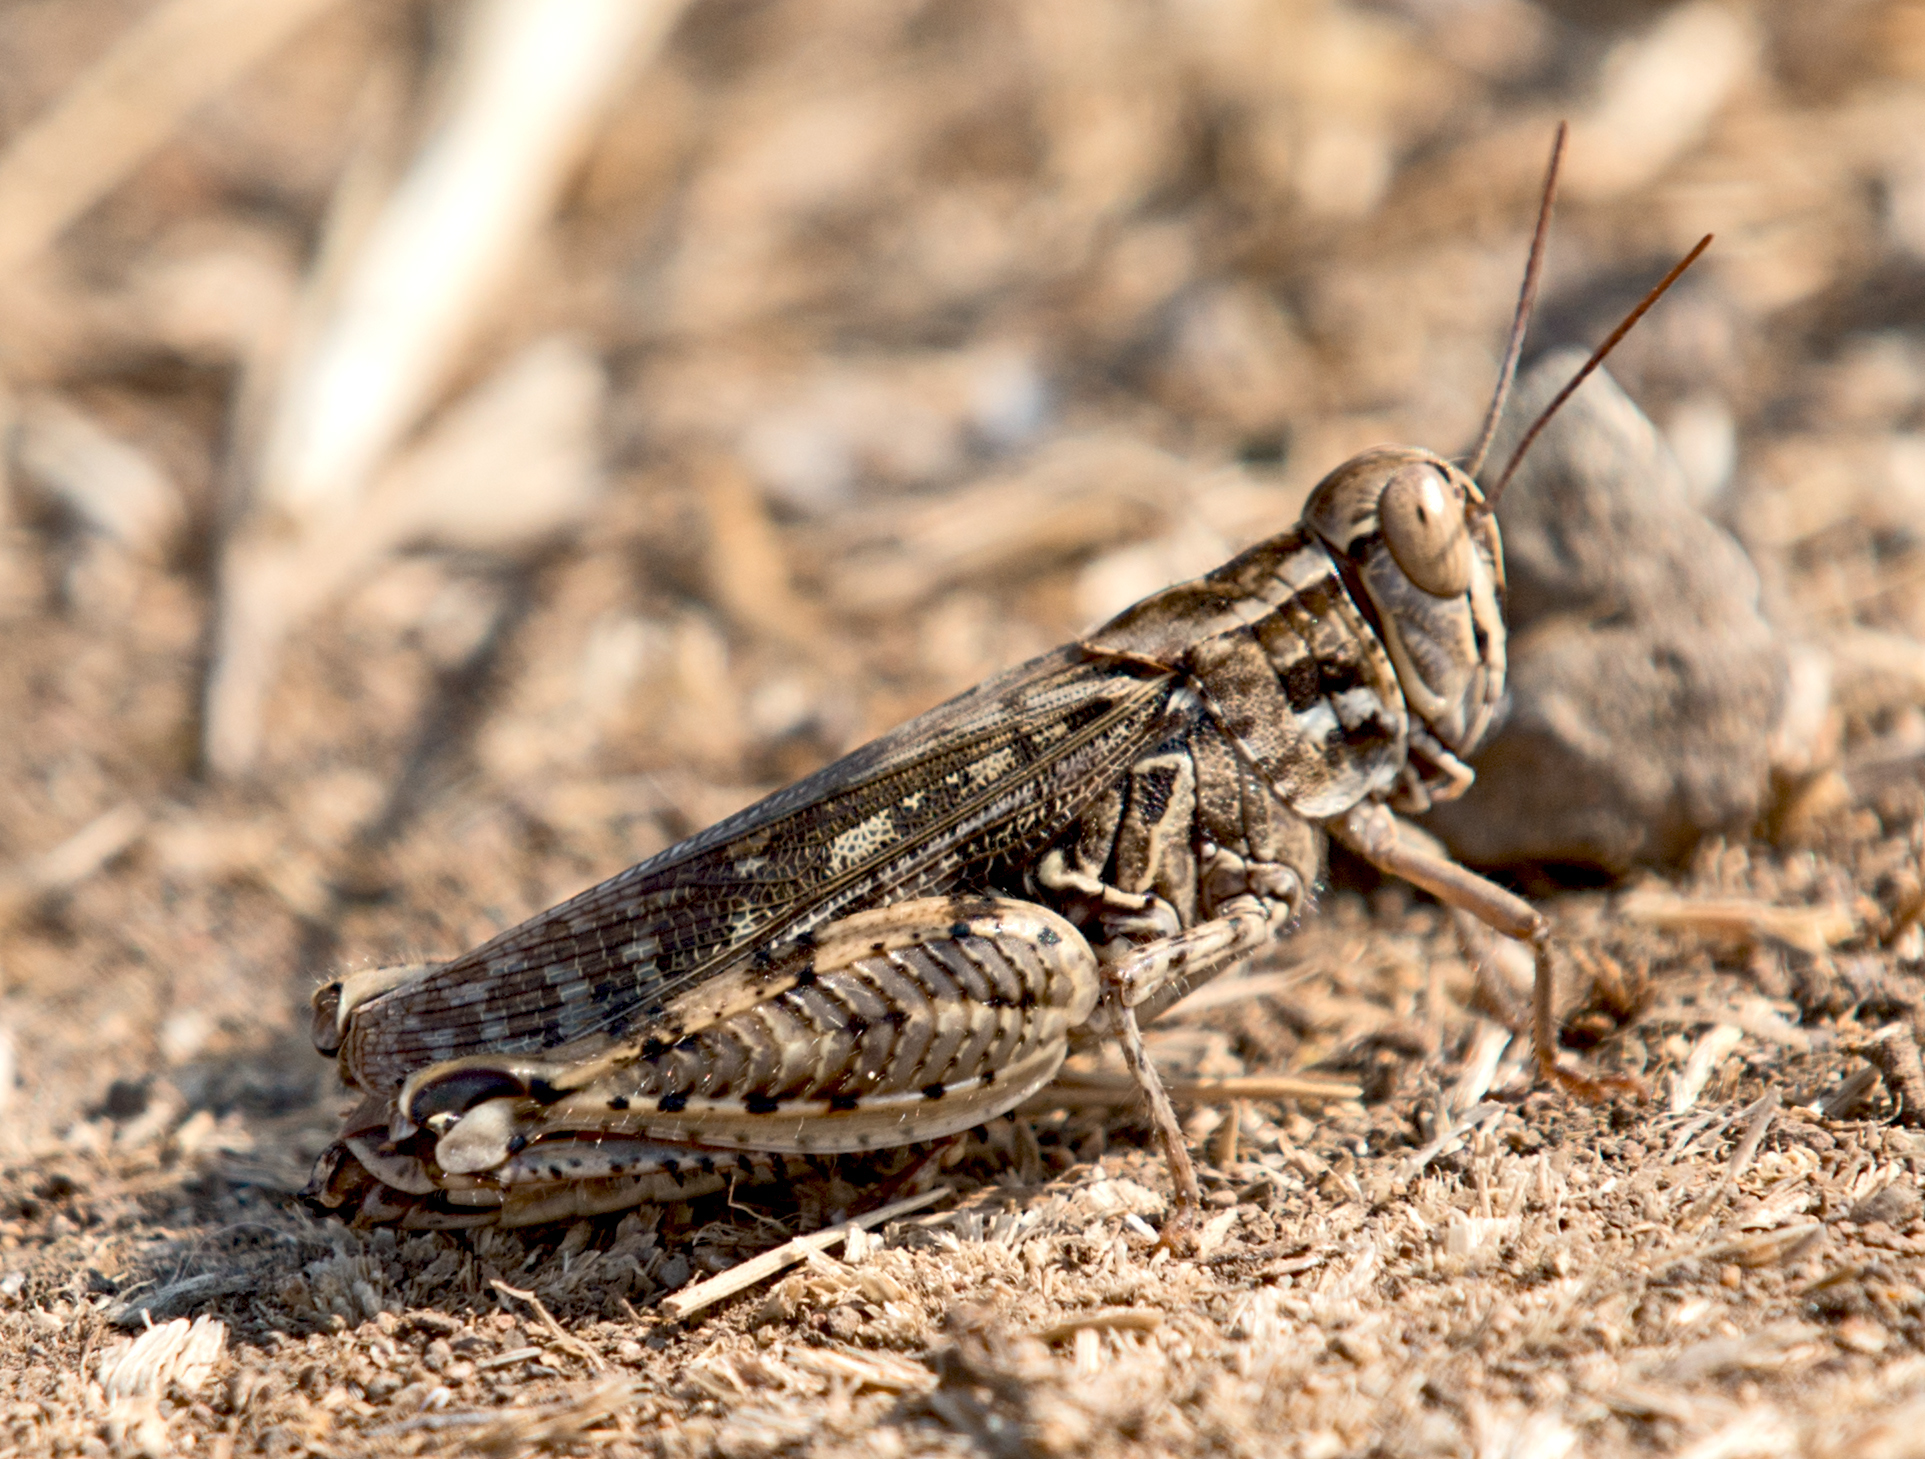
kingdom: Animalia
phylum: Arthropoda
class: Insecta
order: Orthoptera
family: Acrididae
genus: Calliptamus
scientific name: Calliptamus italicus
